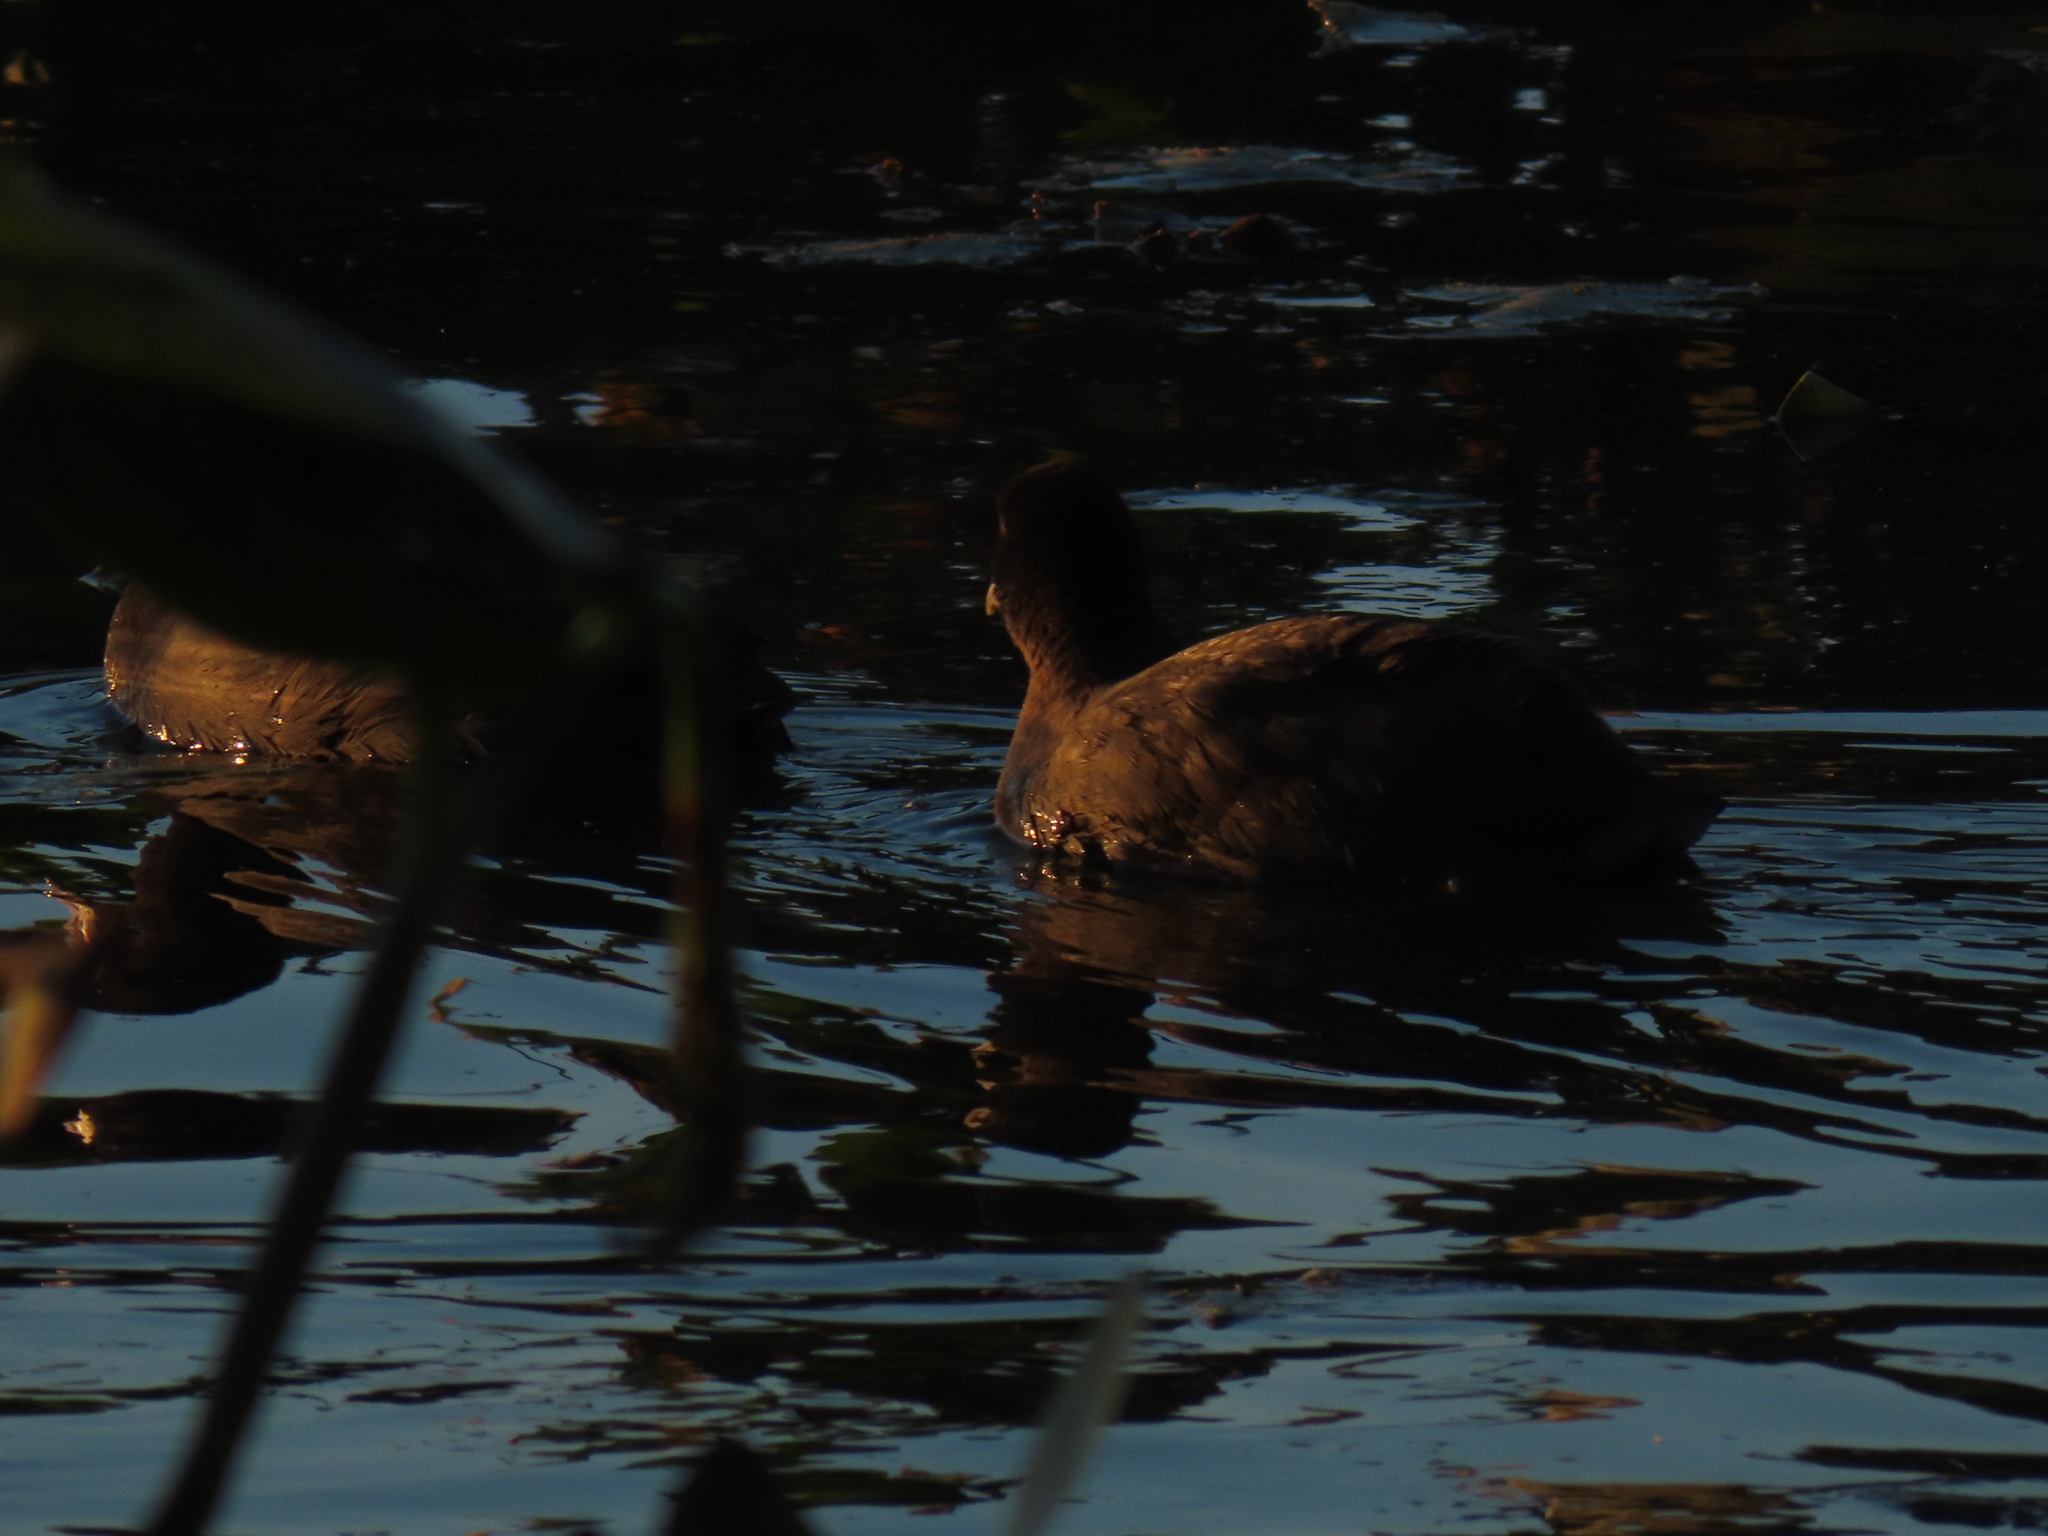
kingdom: Animalia
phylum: Chordata
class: Aves
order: Gruiformes
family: Rallidae
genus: Fulica
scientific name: Fulica americana
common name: American coot
